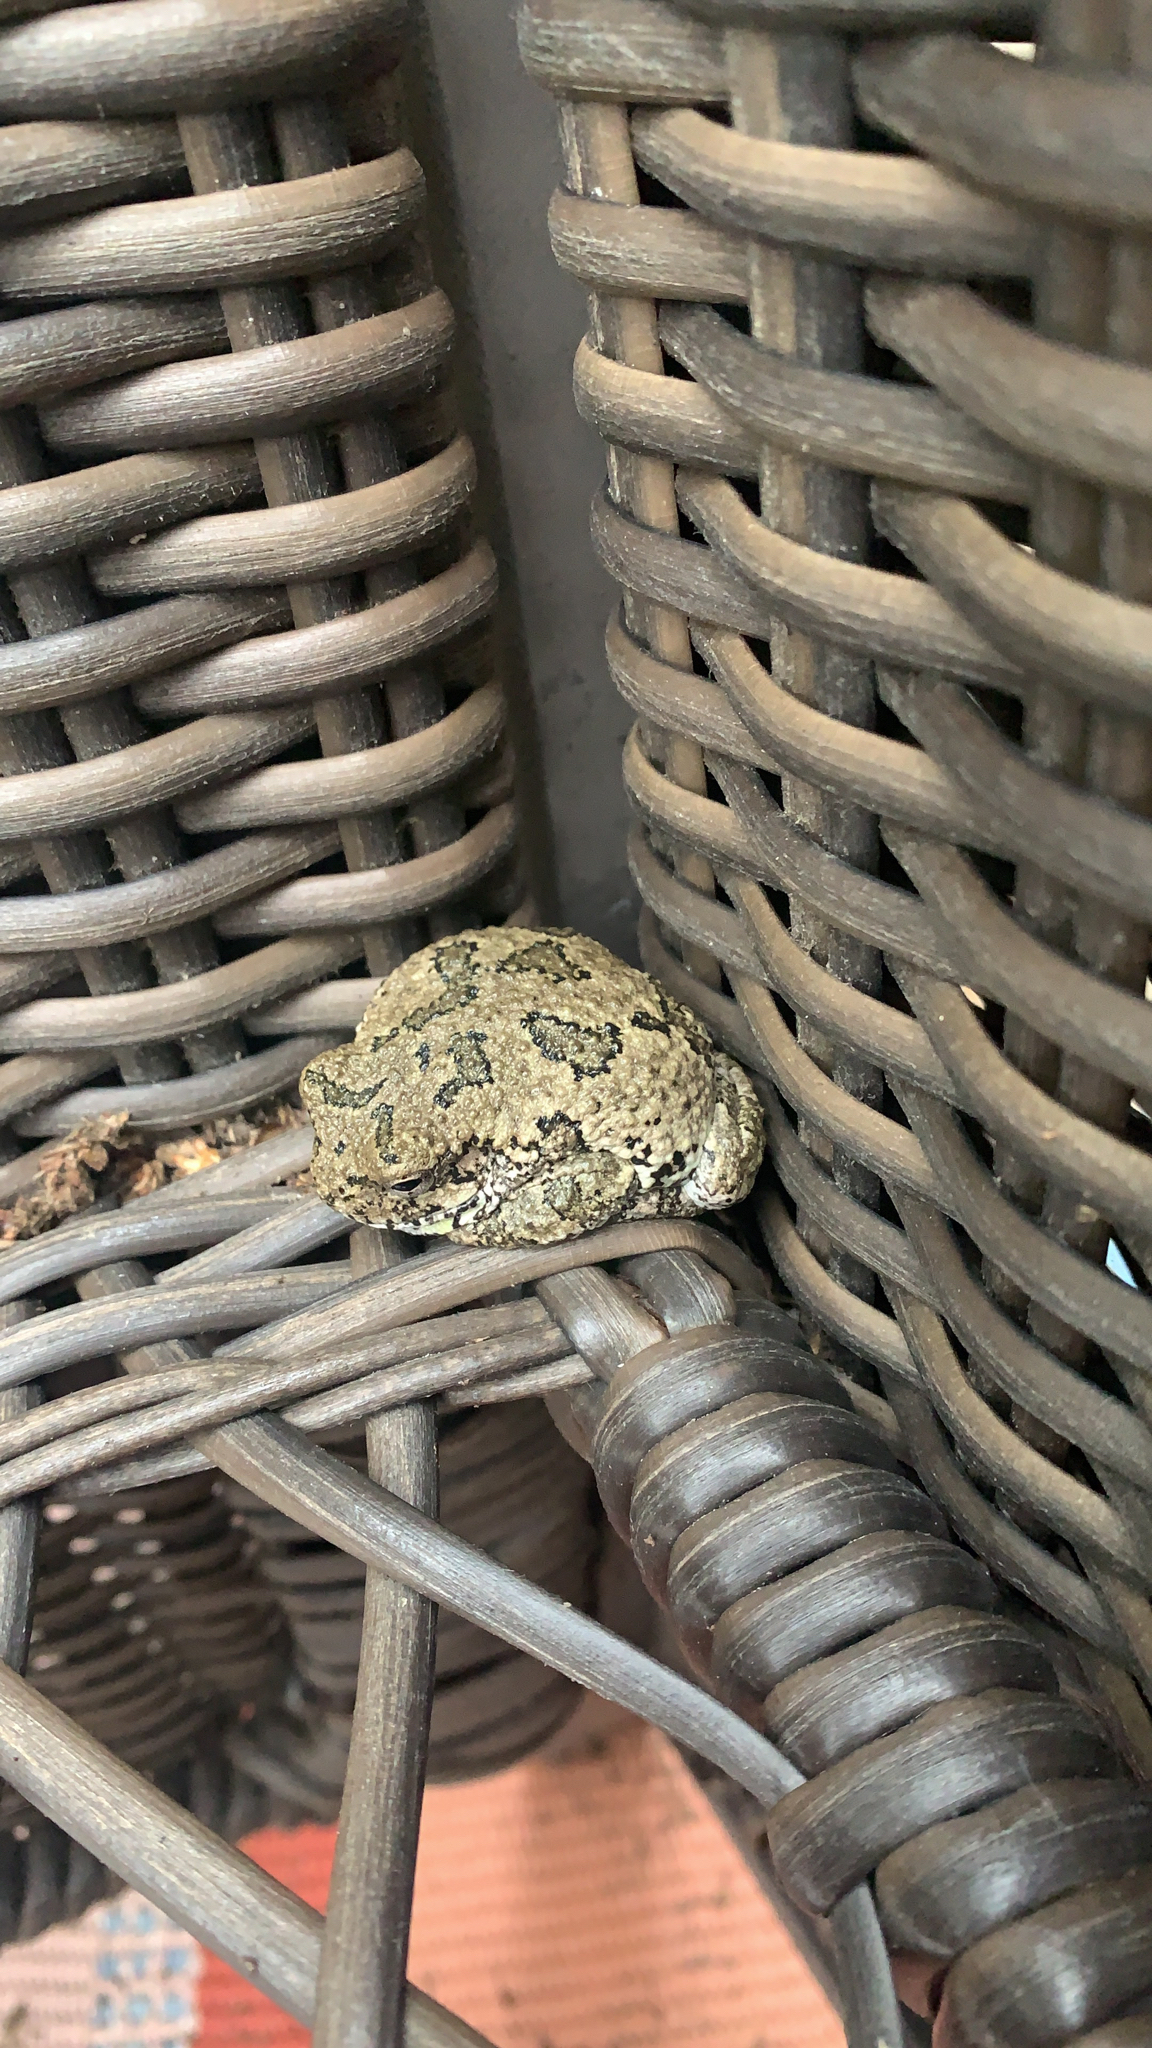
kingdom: Animalia
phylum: Chordata
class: Amphibia
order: Anura
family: Hylidae
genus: Hyla
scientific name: Hyla
